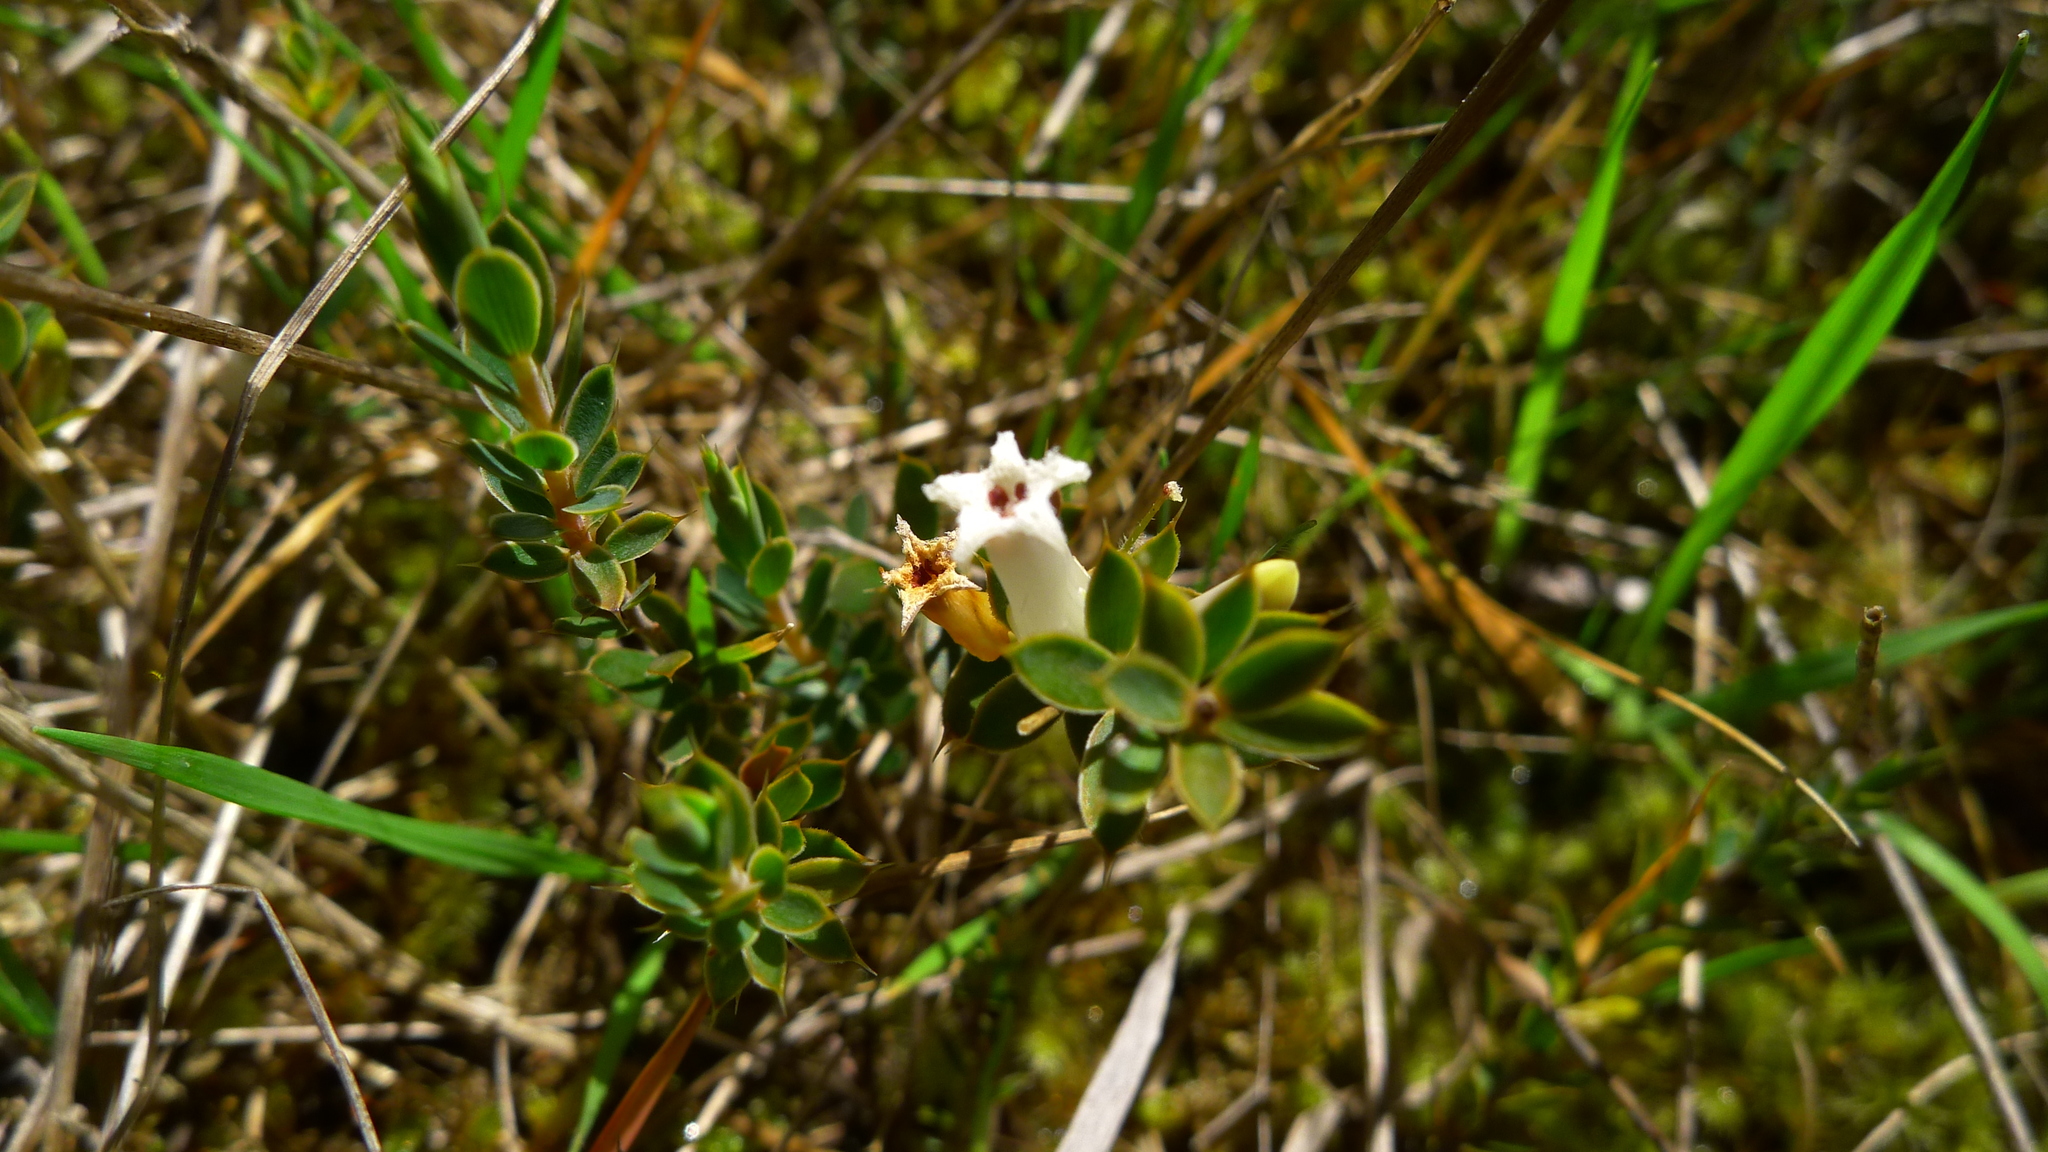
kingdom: Plantae
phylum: Tracheophyta
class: Magnoliopsida
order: Ericales
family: Ericaceae
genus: Styphelia
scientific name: Styphelia nesophila
